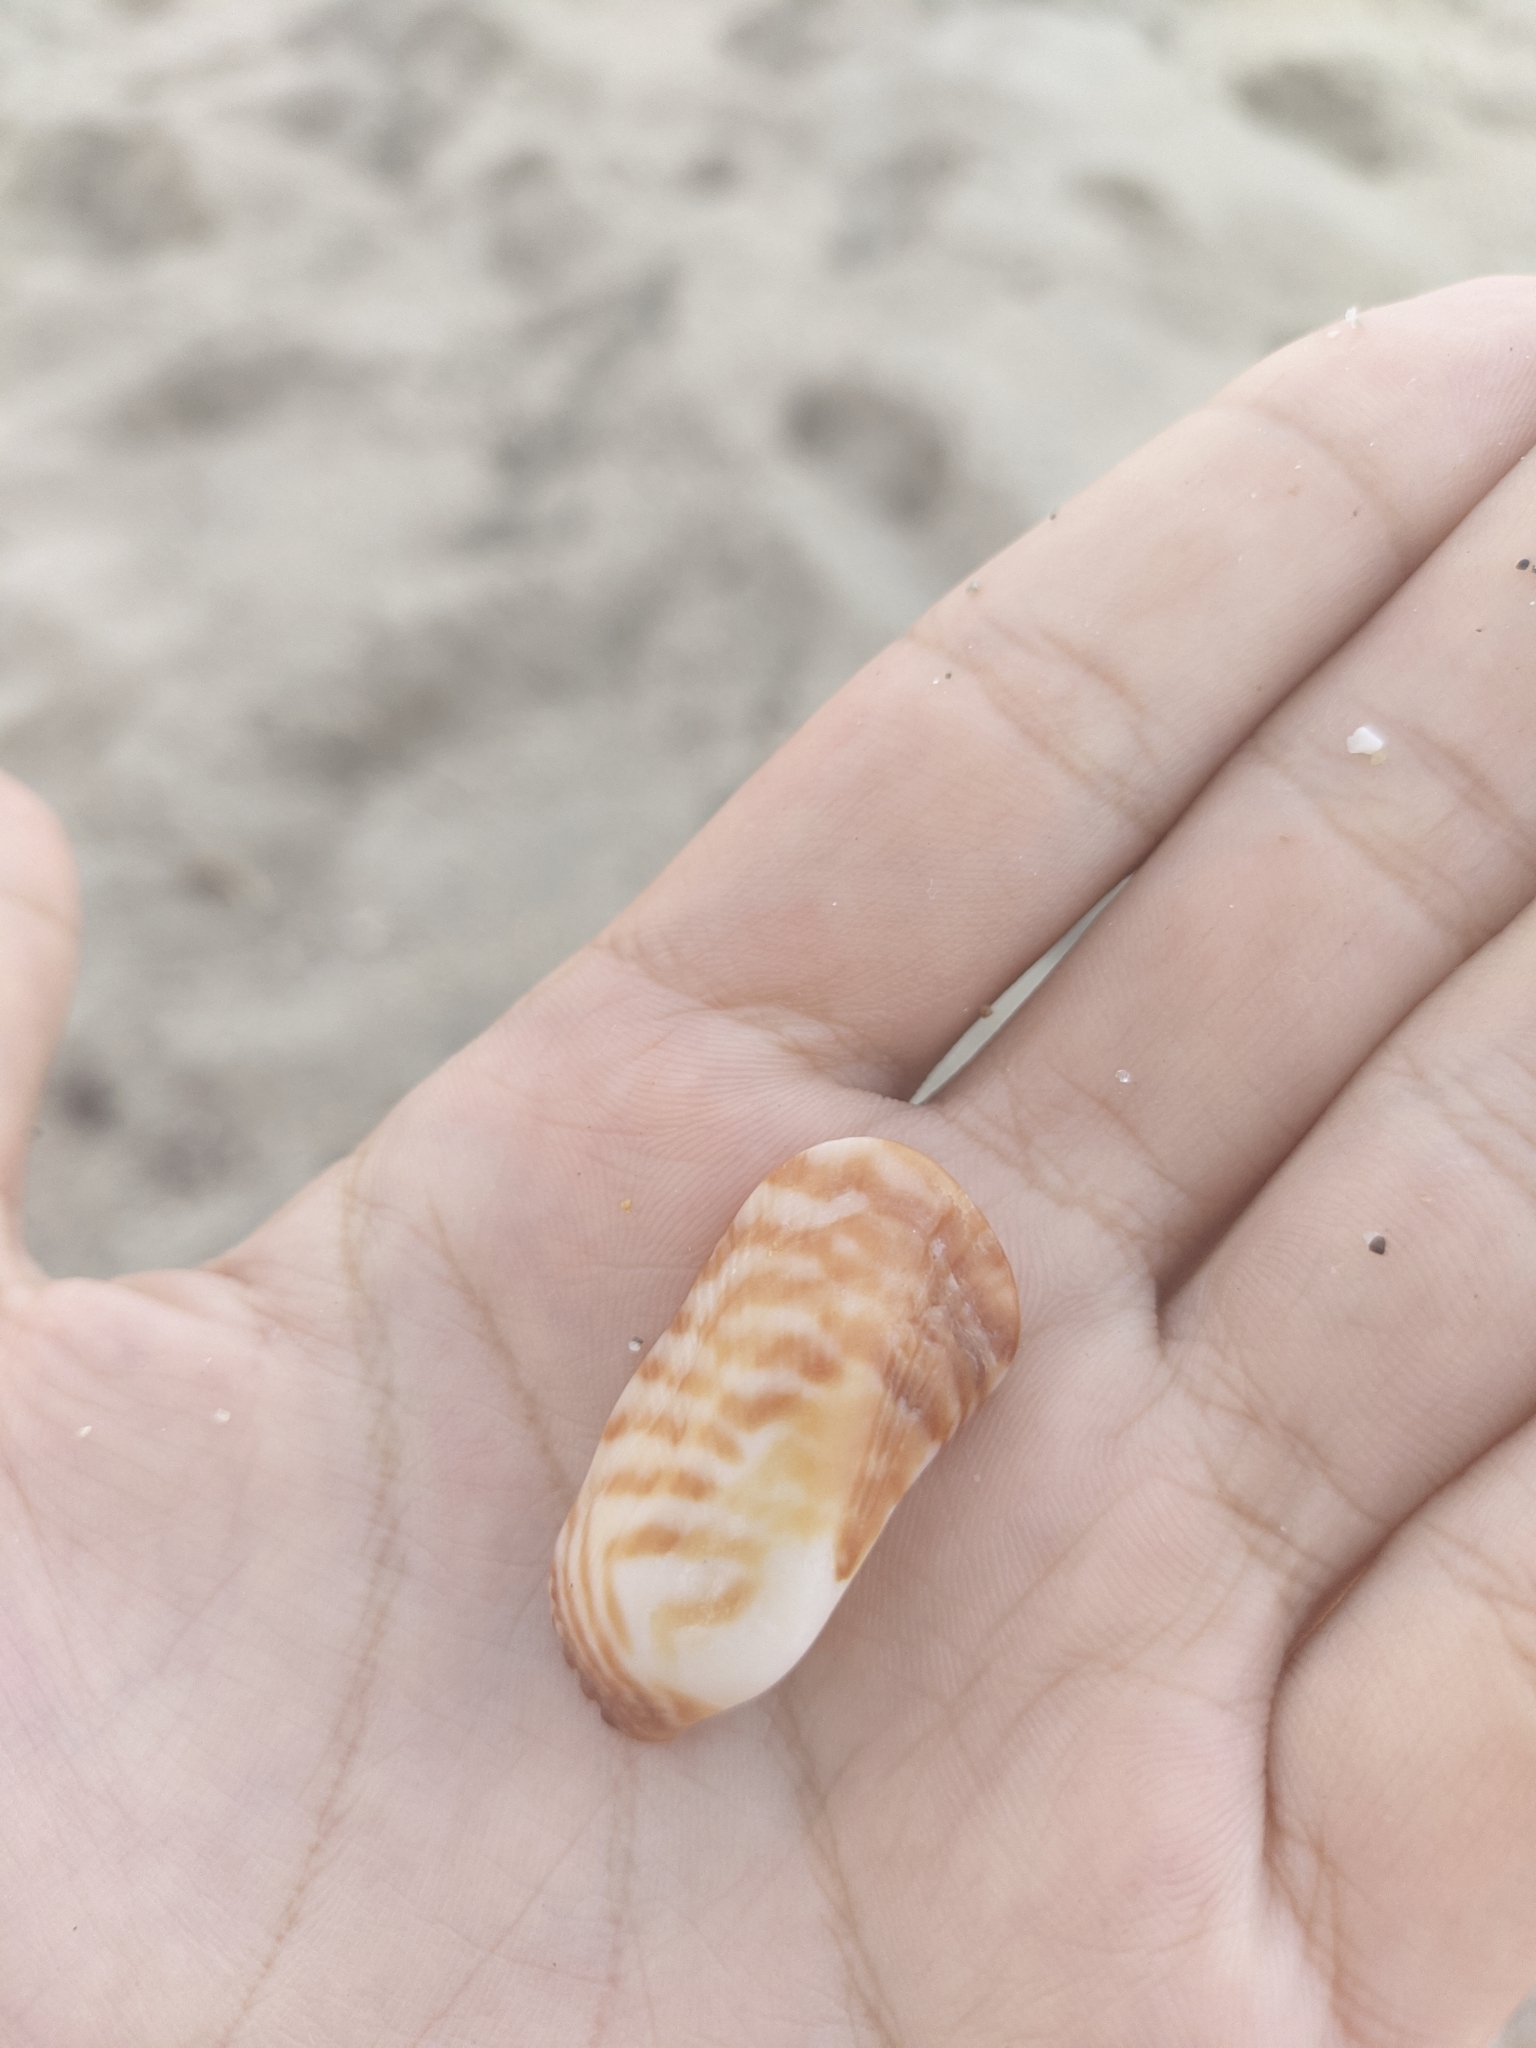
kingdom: Animalia
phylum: Mollusca
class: Bivalvia
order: Arcida
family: Arcidae
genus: Arca
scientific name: Arca zebra
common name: Atlantic turkey wing
